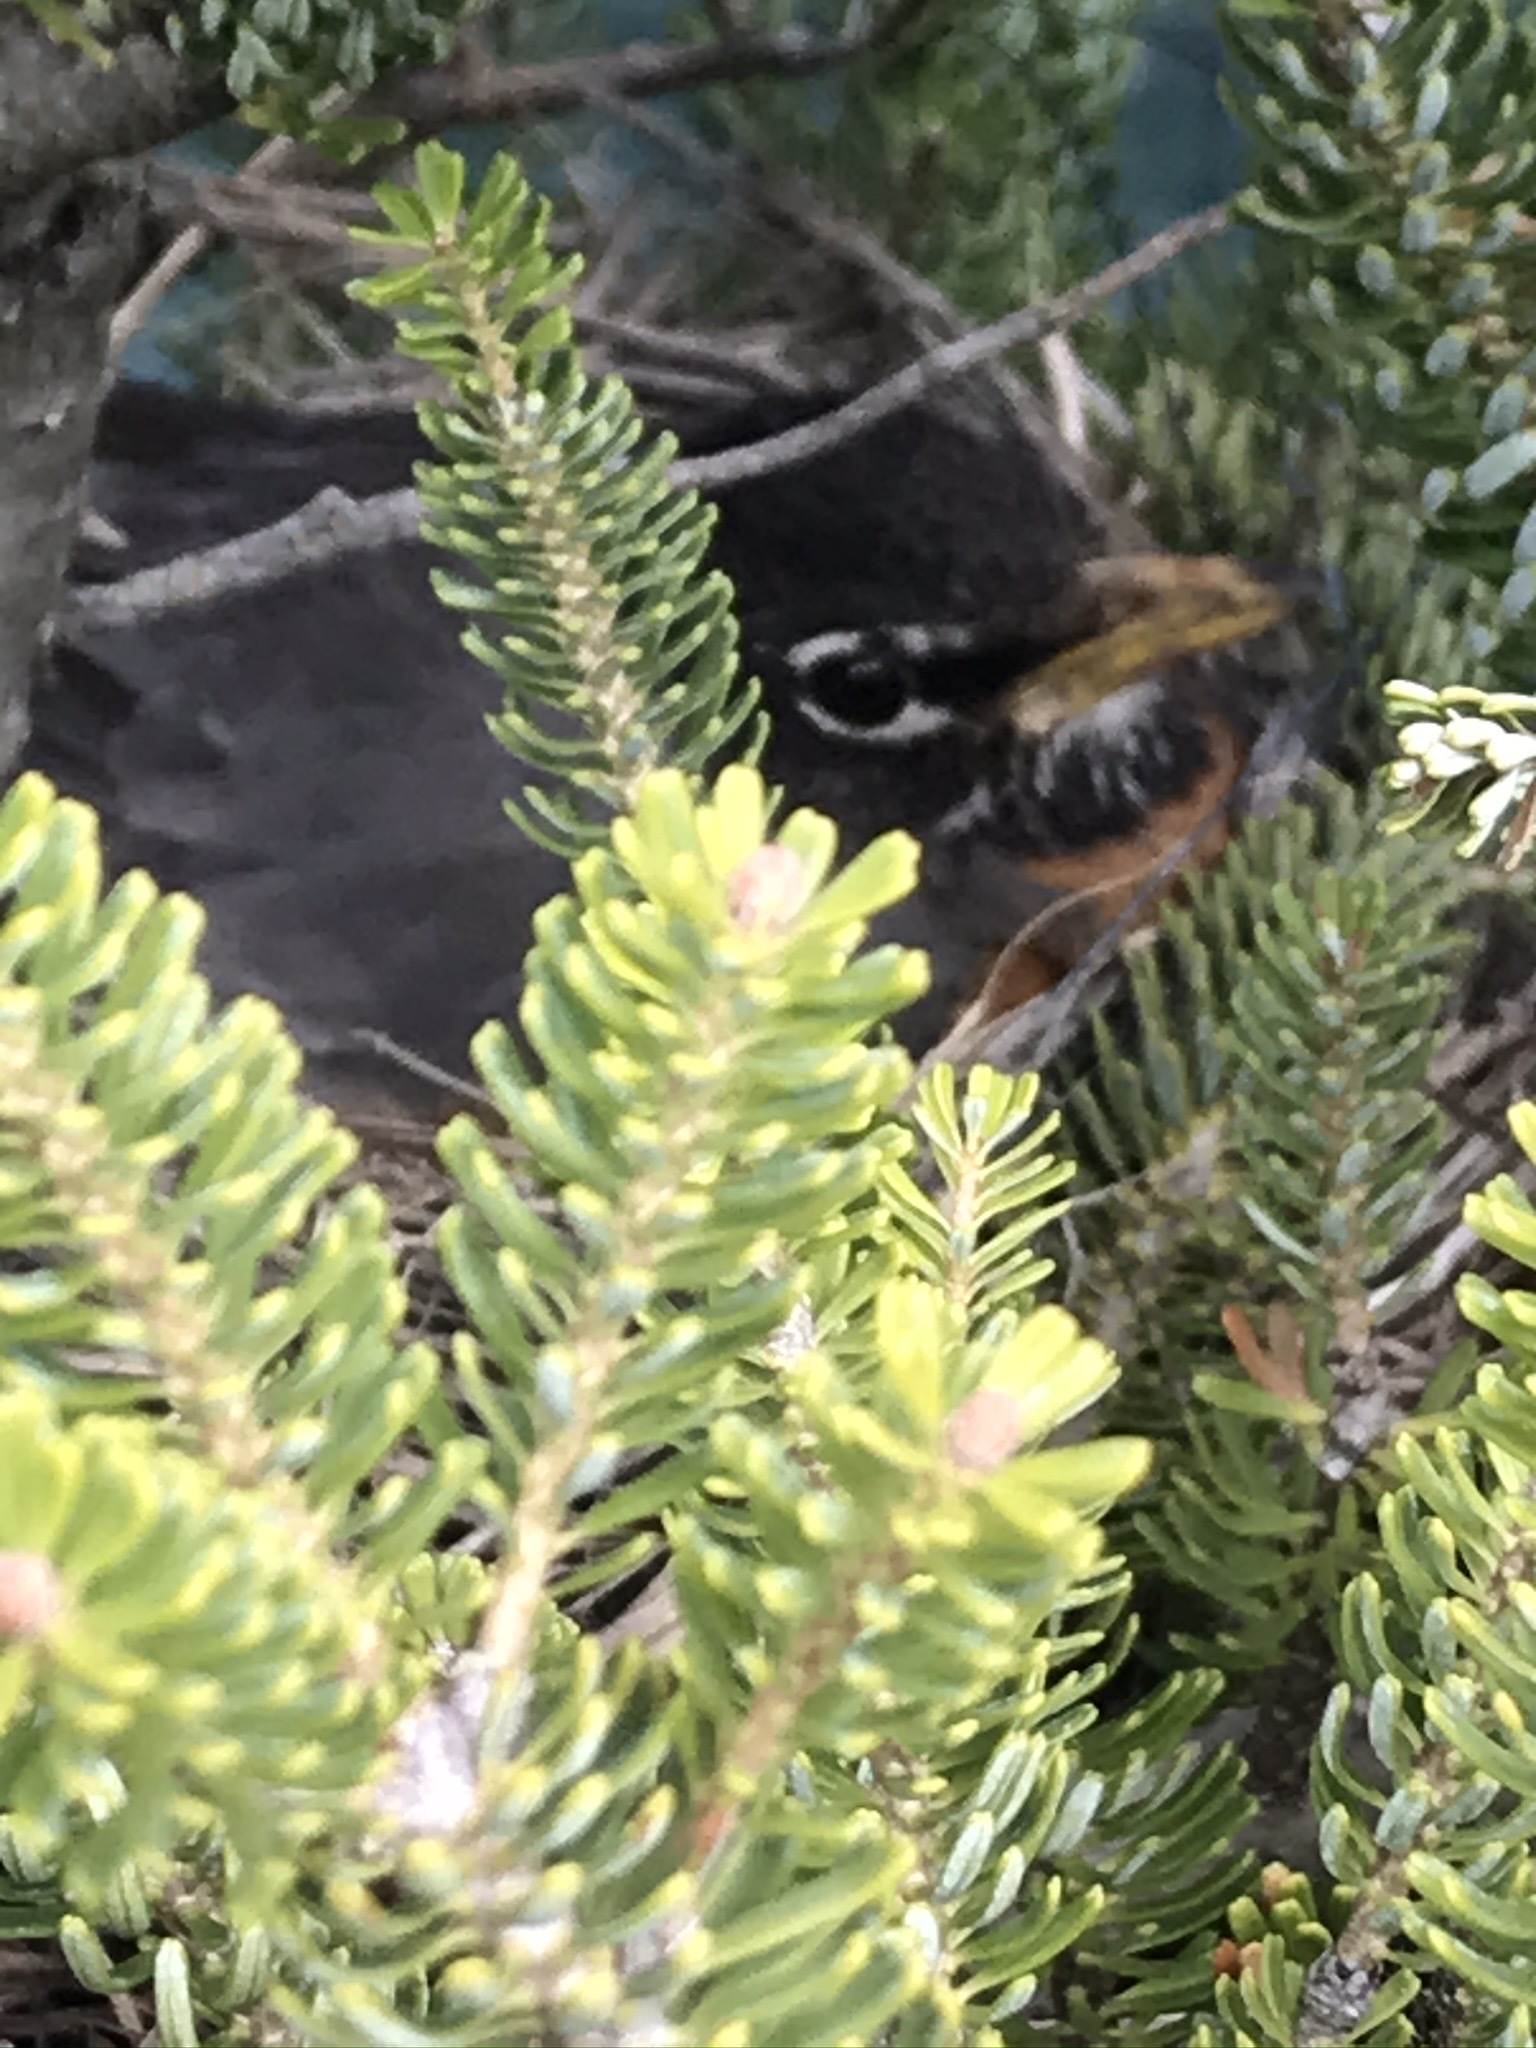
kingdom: Animalia
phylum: Chordata
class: Aves
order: Passeriformes
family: Turdidae
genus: Turdus
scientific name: Turdus migratorius
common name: American robin
